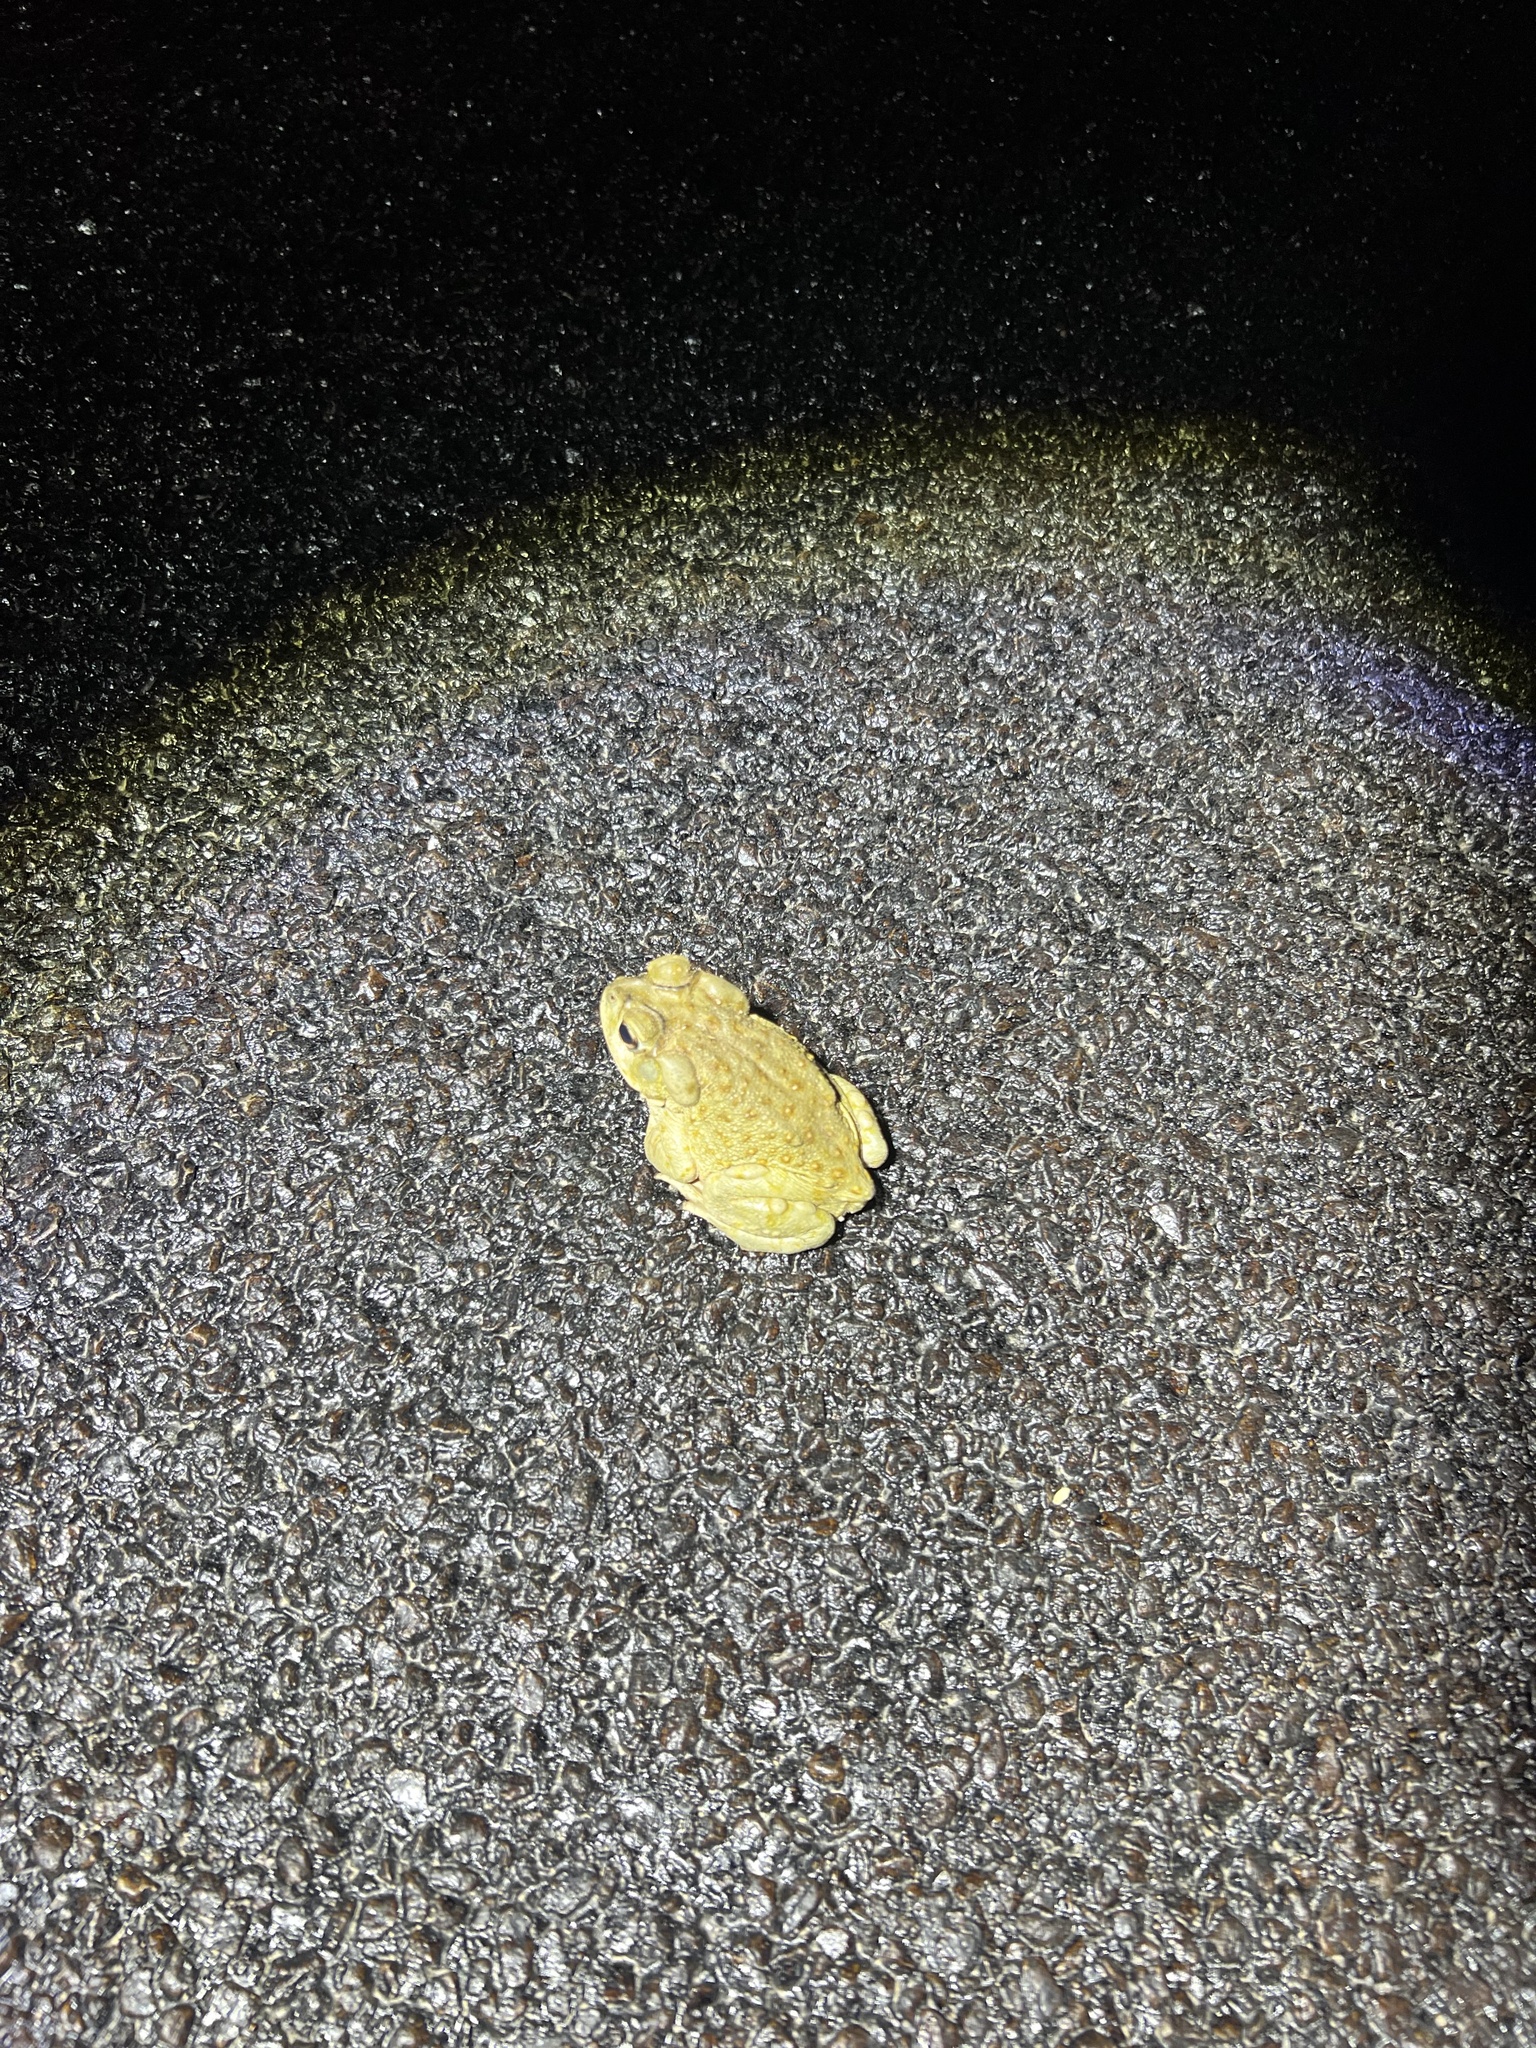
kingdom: Animalia
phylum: Chordata
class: Amphibia
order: Anura
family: Bufonidae
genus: Incilius
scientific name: Incilius alvarius
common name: Sonoran desert toad
